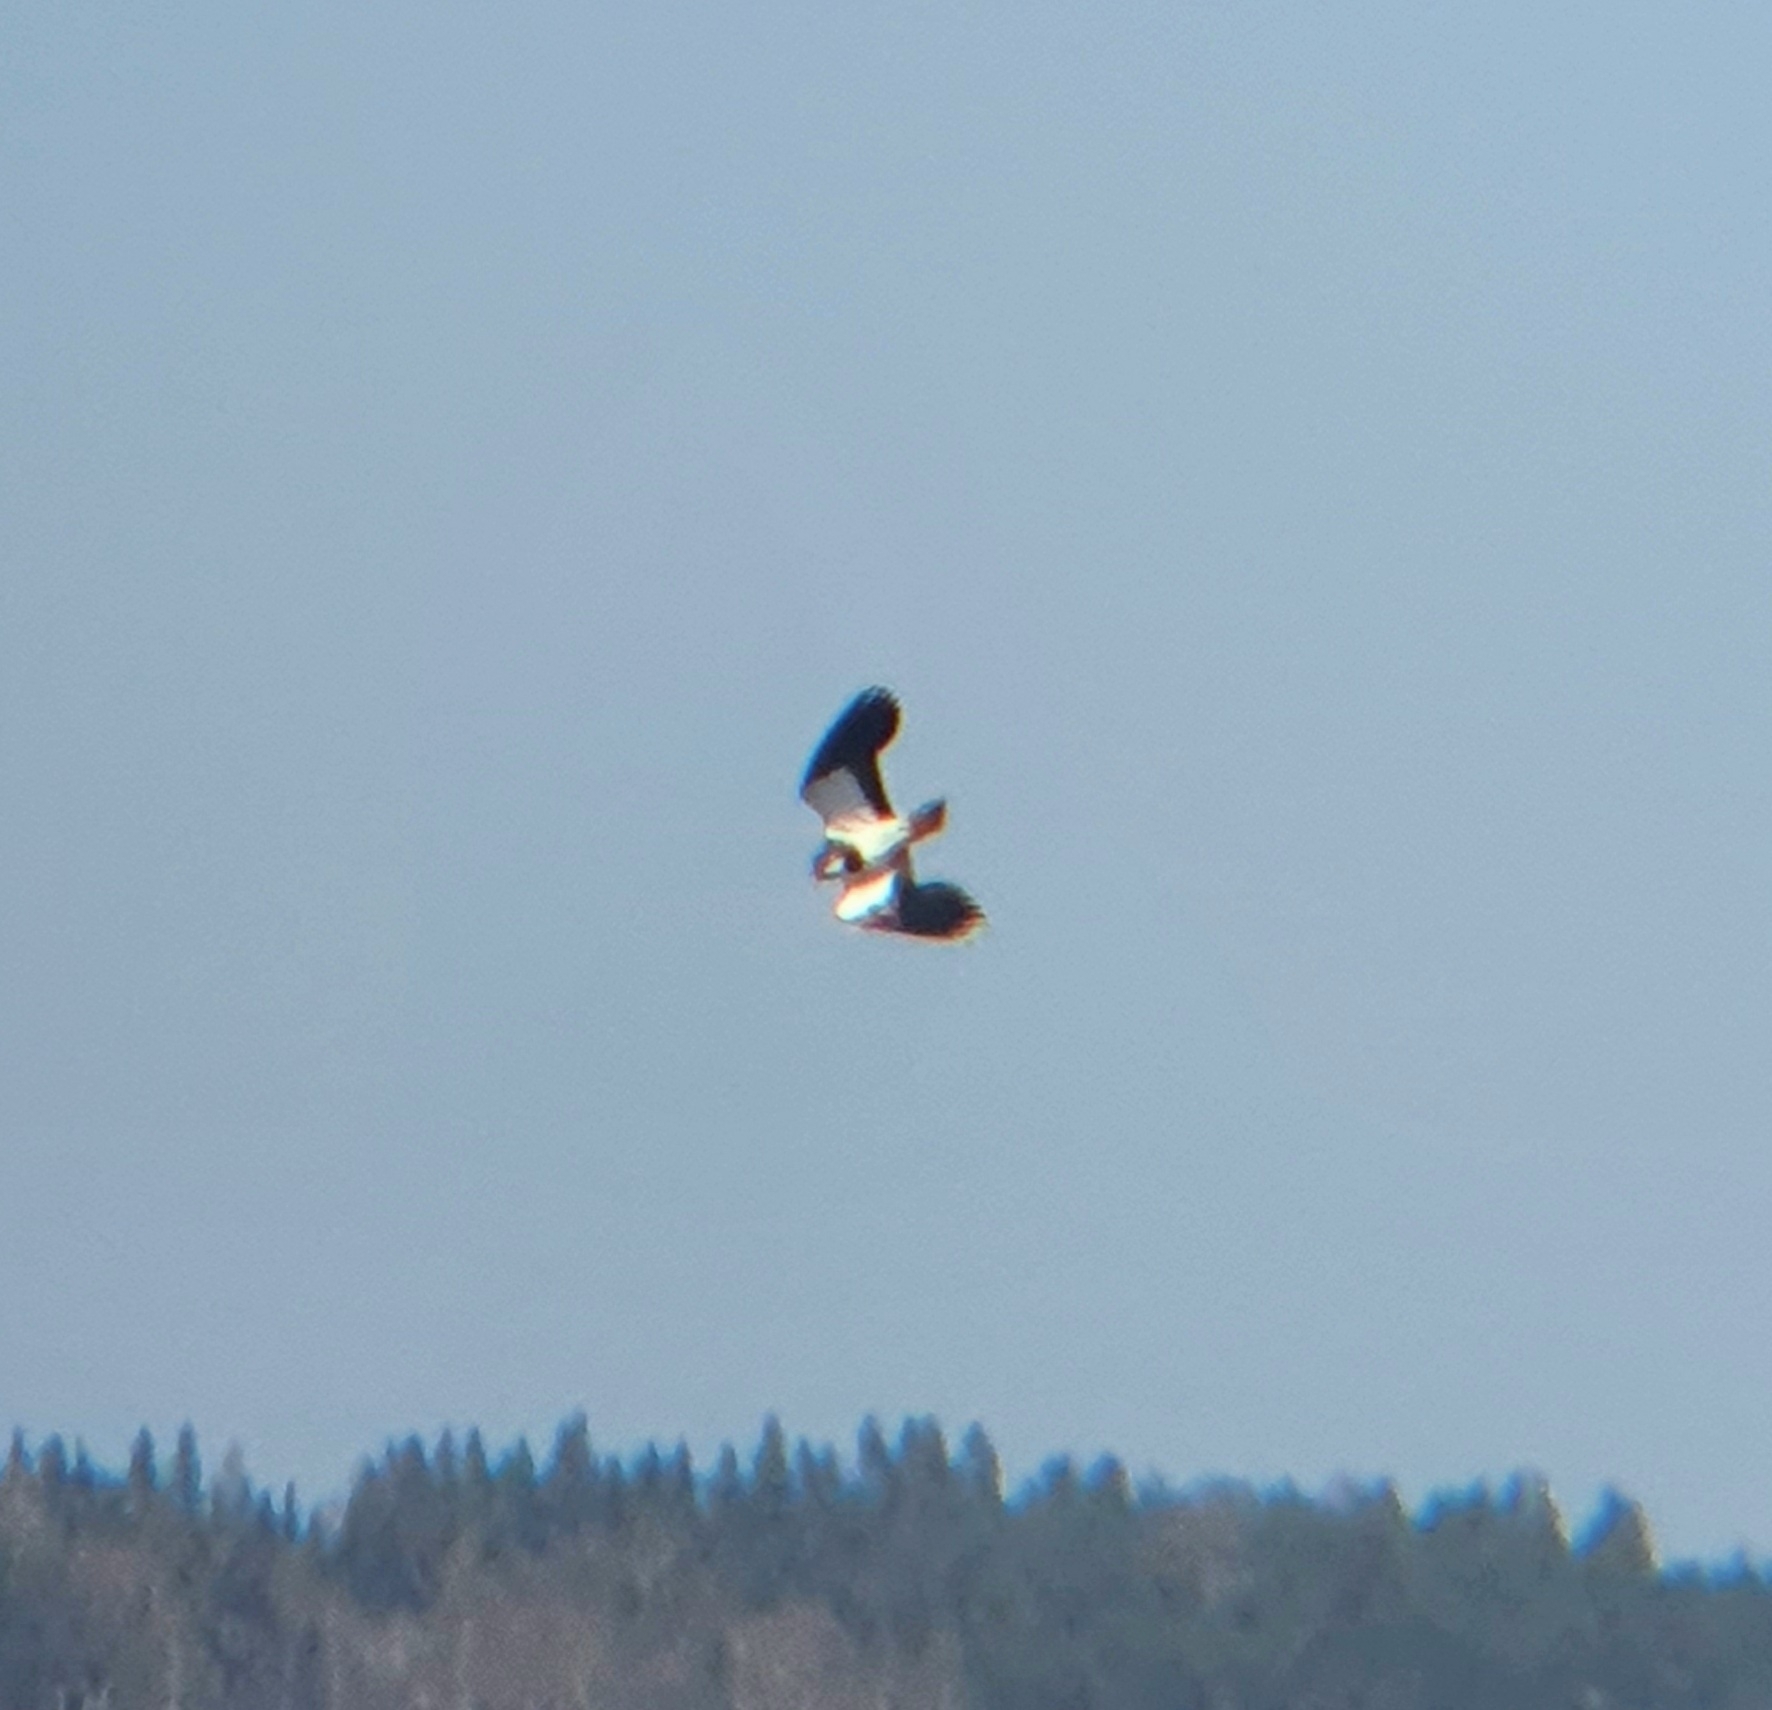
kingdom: Animalia
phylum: Chordata
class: Aves
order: Charadriiformes
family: Charadriidae
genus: Vanellus
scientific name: Vanellus vanellus
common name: Northern lapwing
